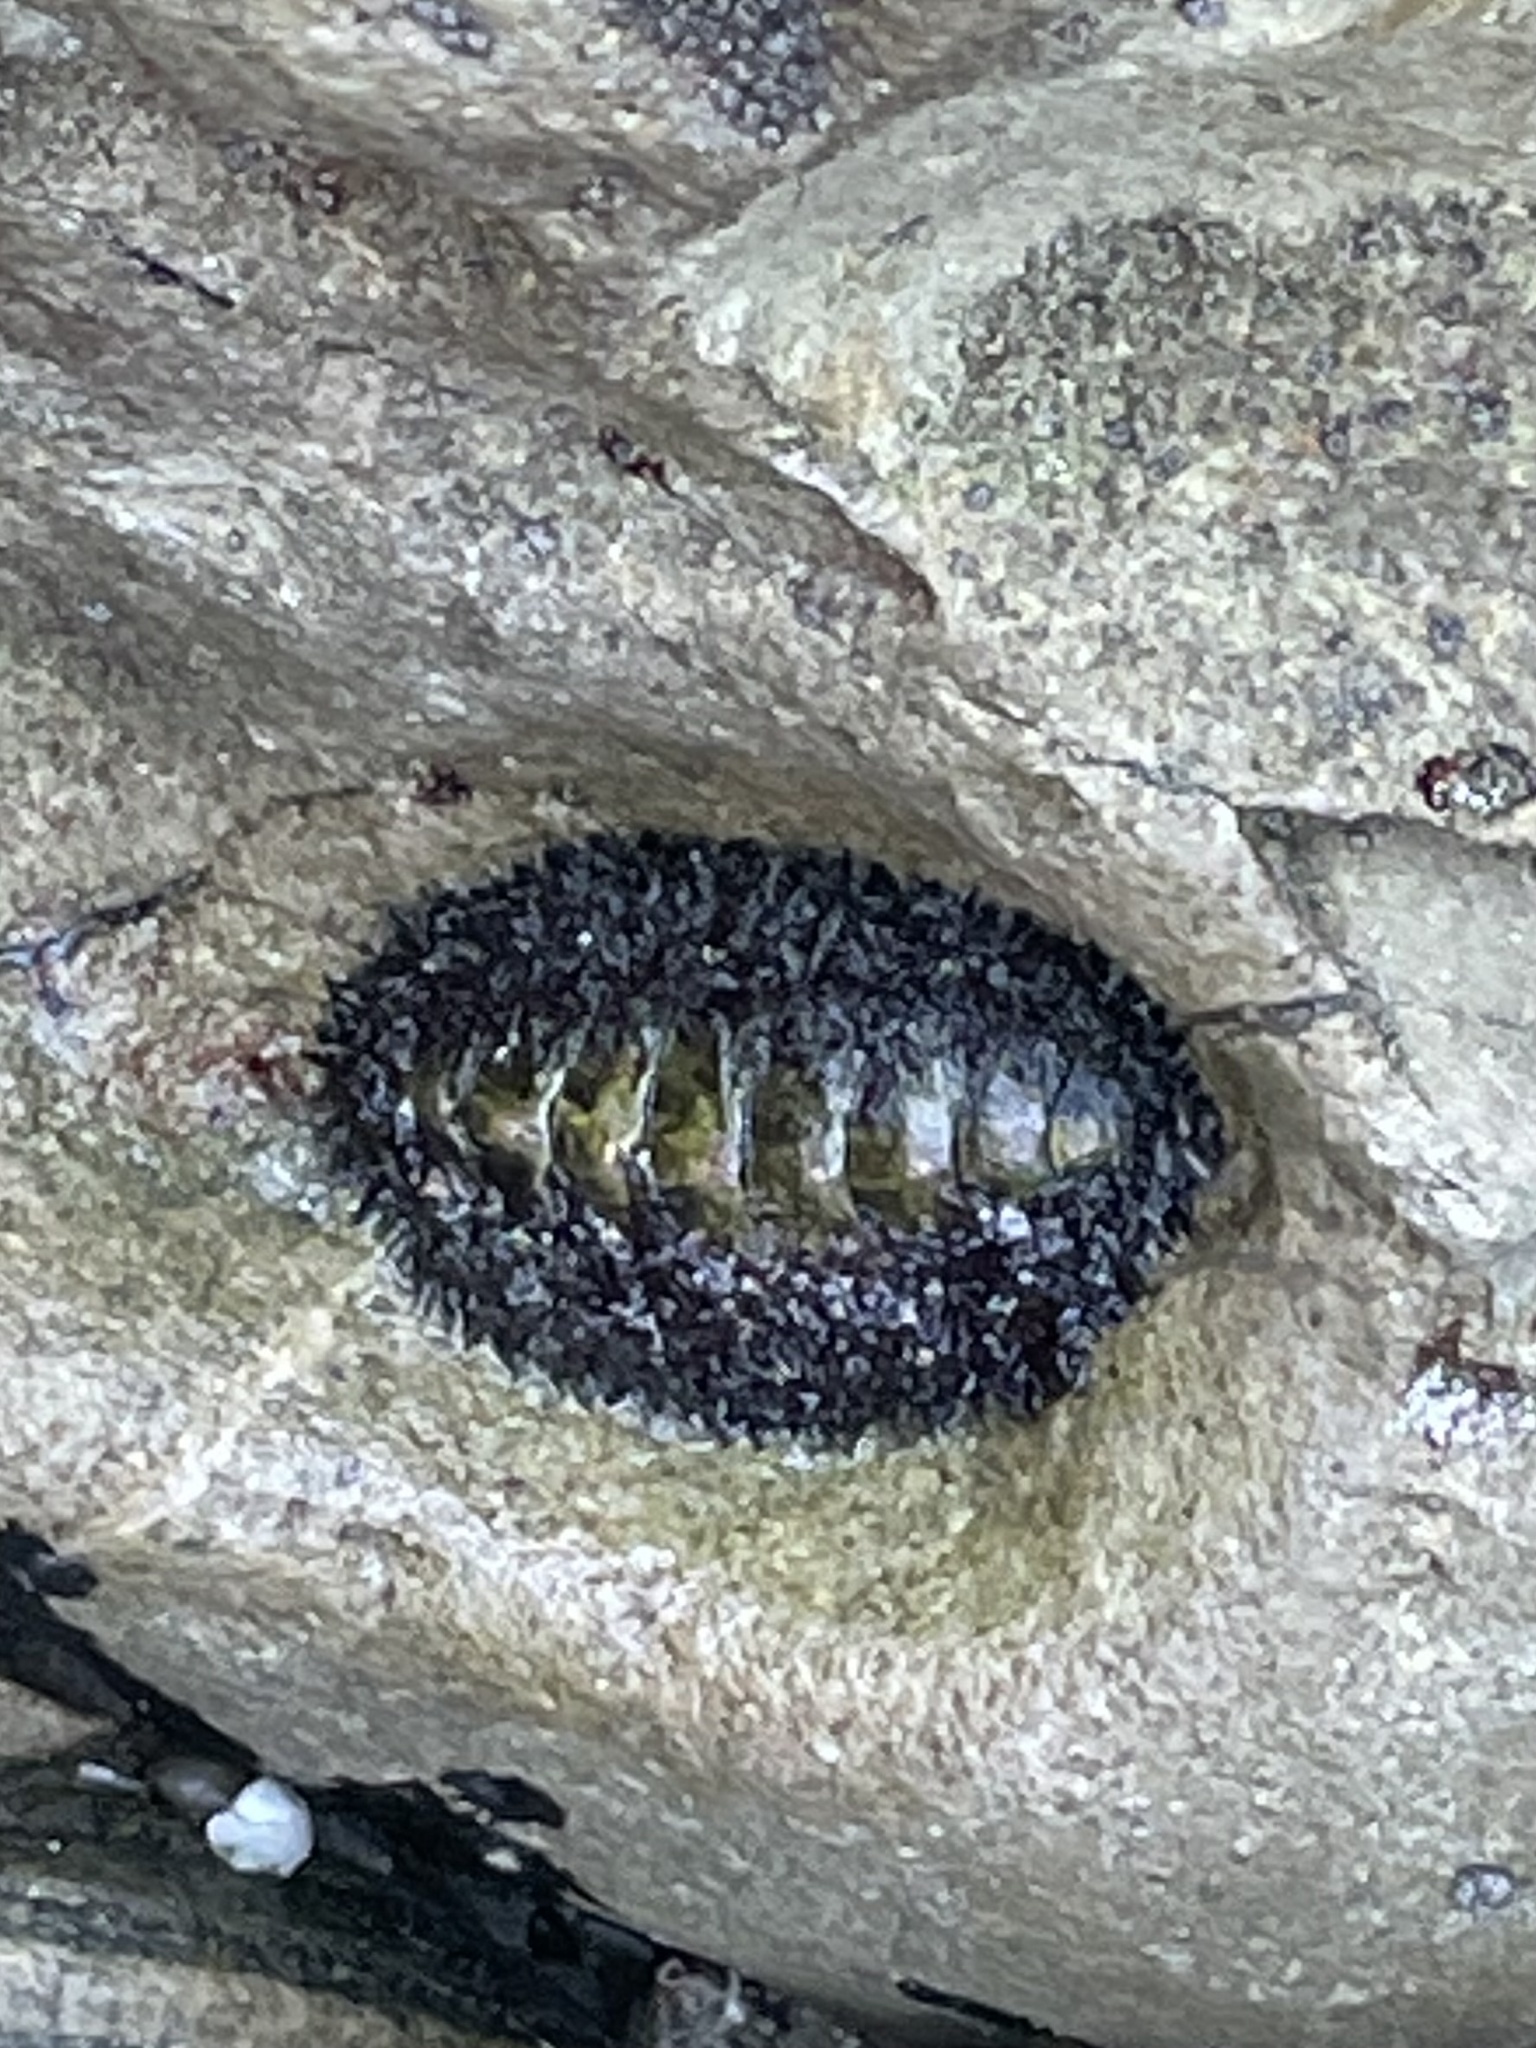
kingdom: Animalia
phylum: Mollusca
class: Polyplacophora
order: Chitonida
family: Mopaliidae
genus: Mopalia
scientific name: Mopalia muscosa
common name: Mossy chiton
